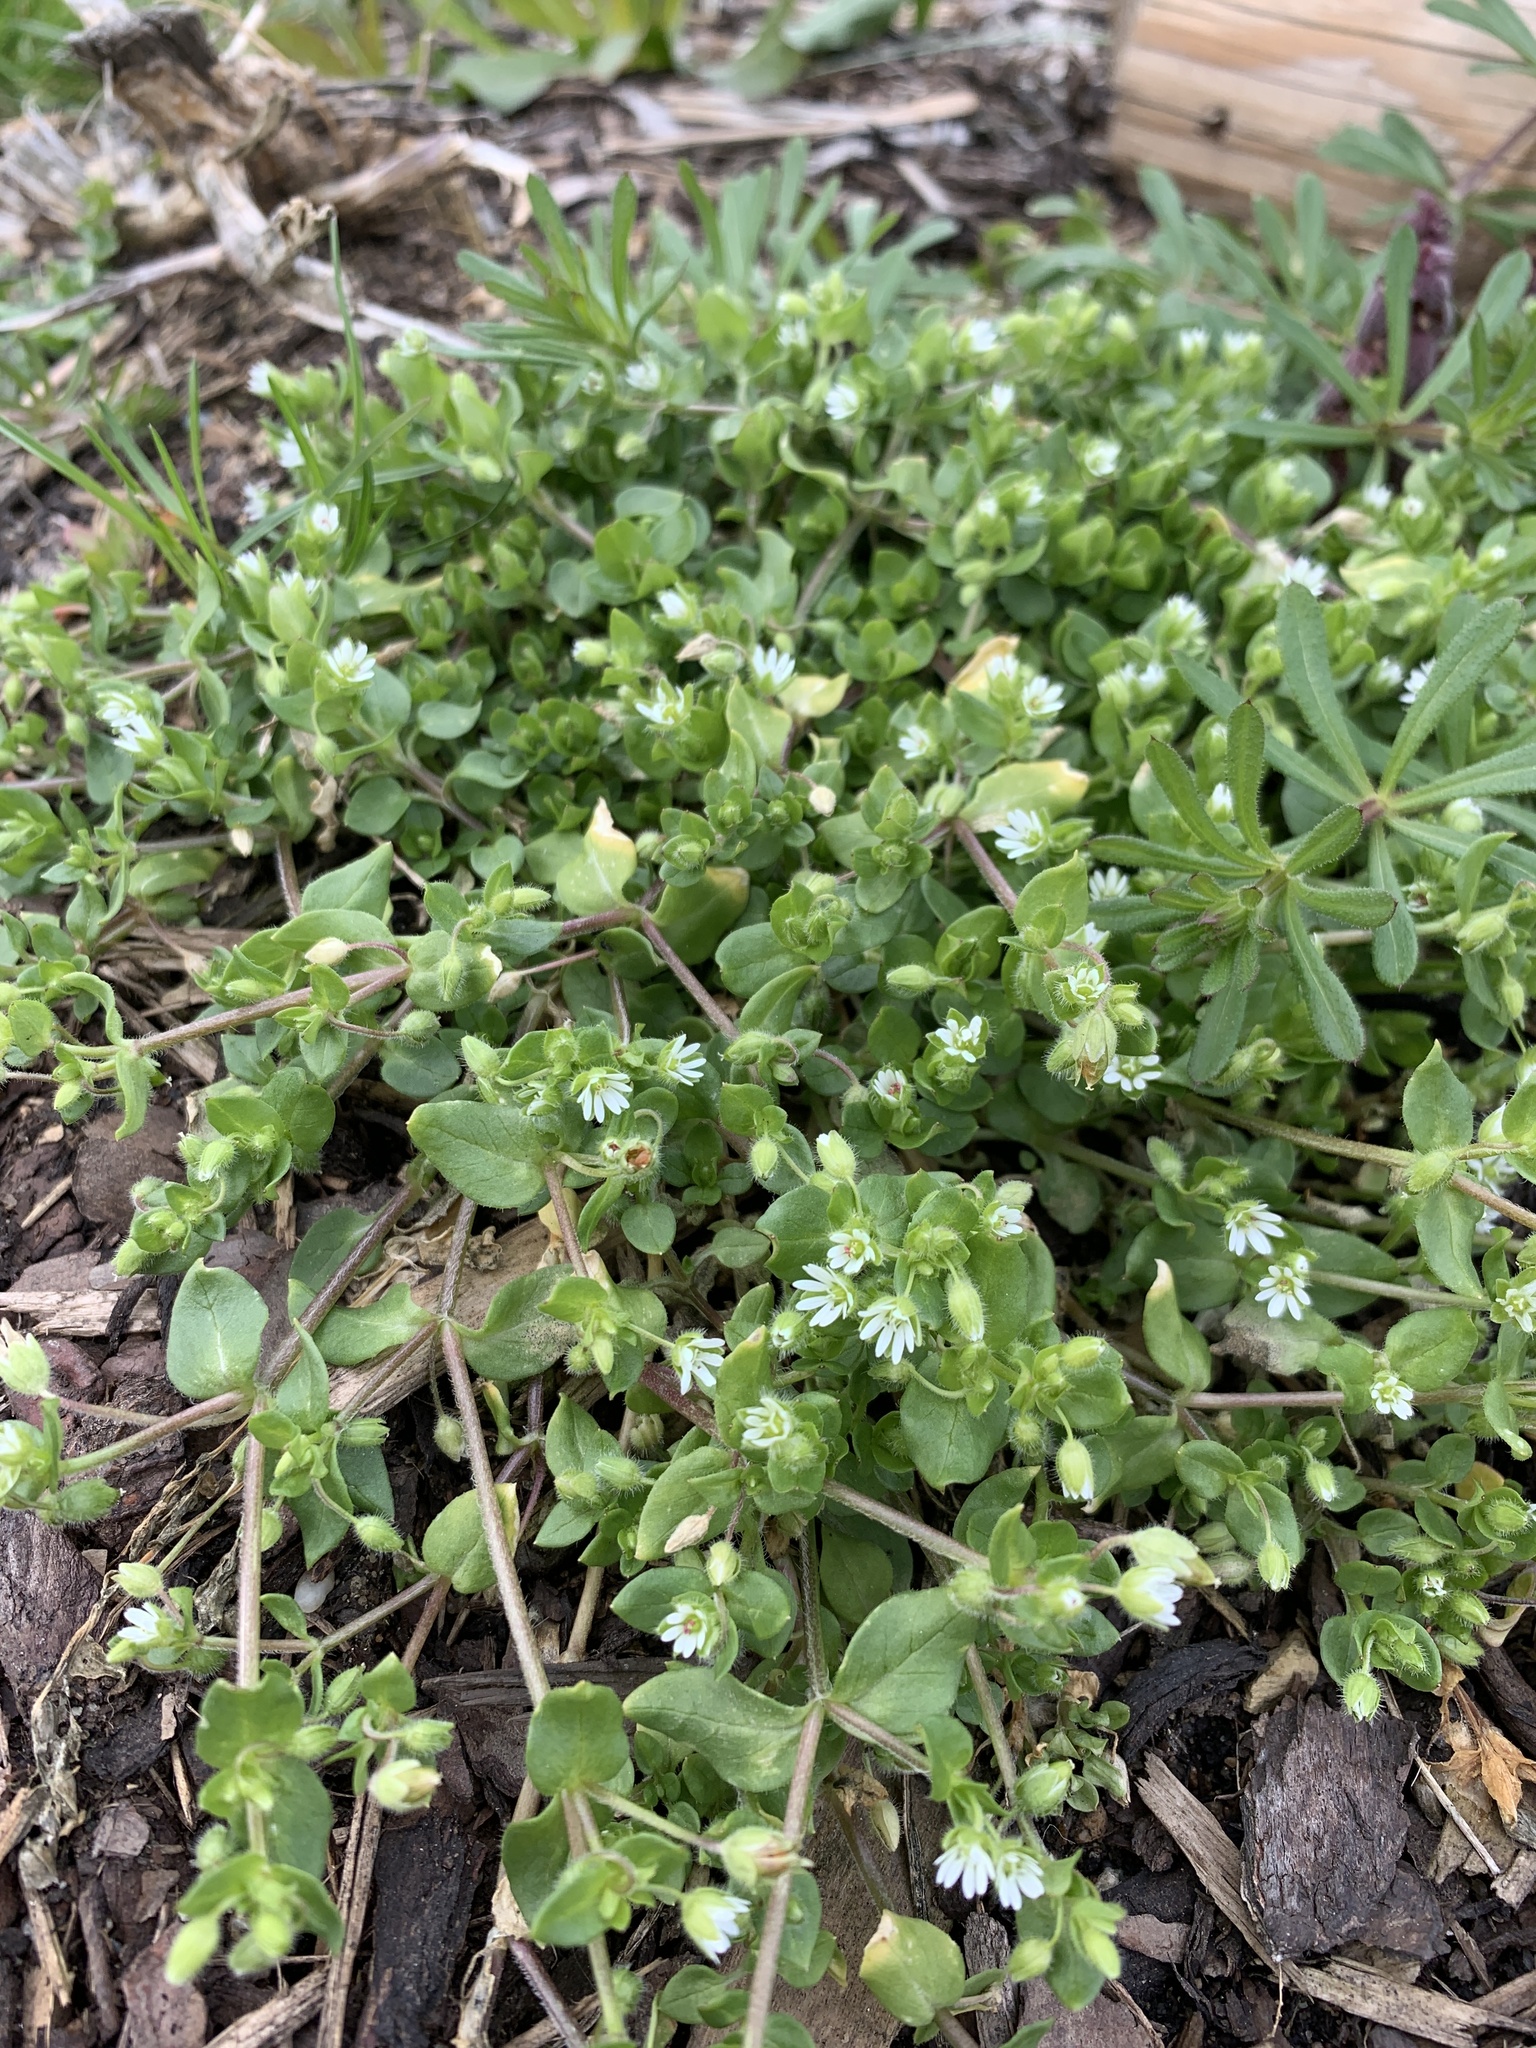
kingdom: Plantae
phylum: Tracheophyta
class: Magnoliopsida
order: Caryophyllales
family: Caryophyllaceae
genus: Stellaria
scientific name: Stellaria media
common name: Common chickweed
